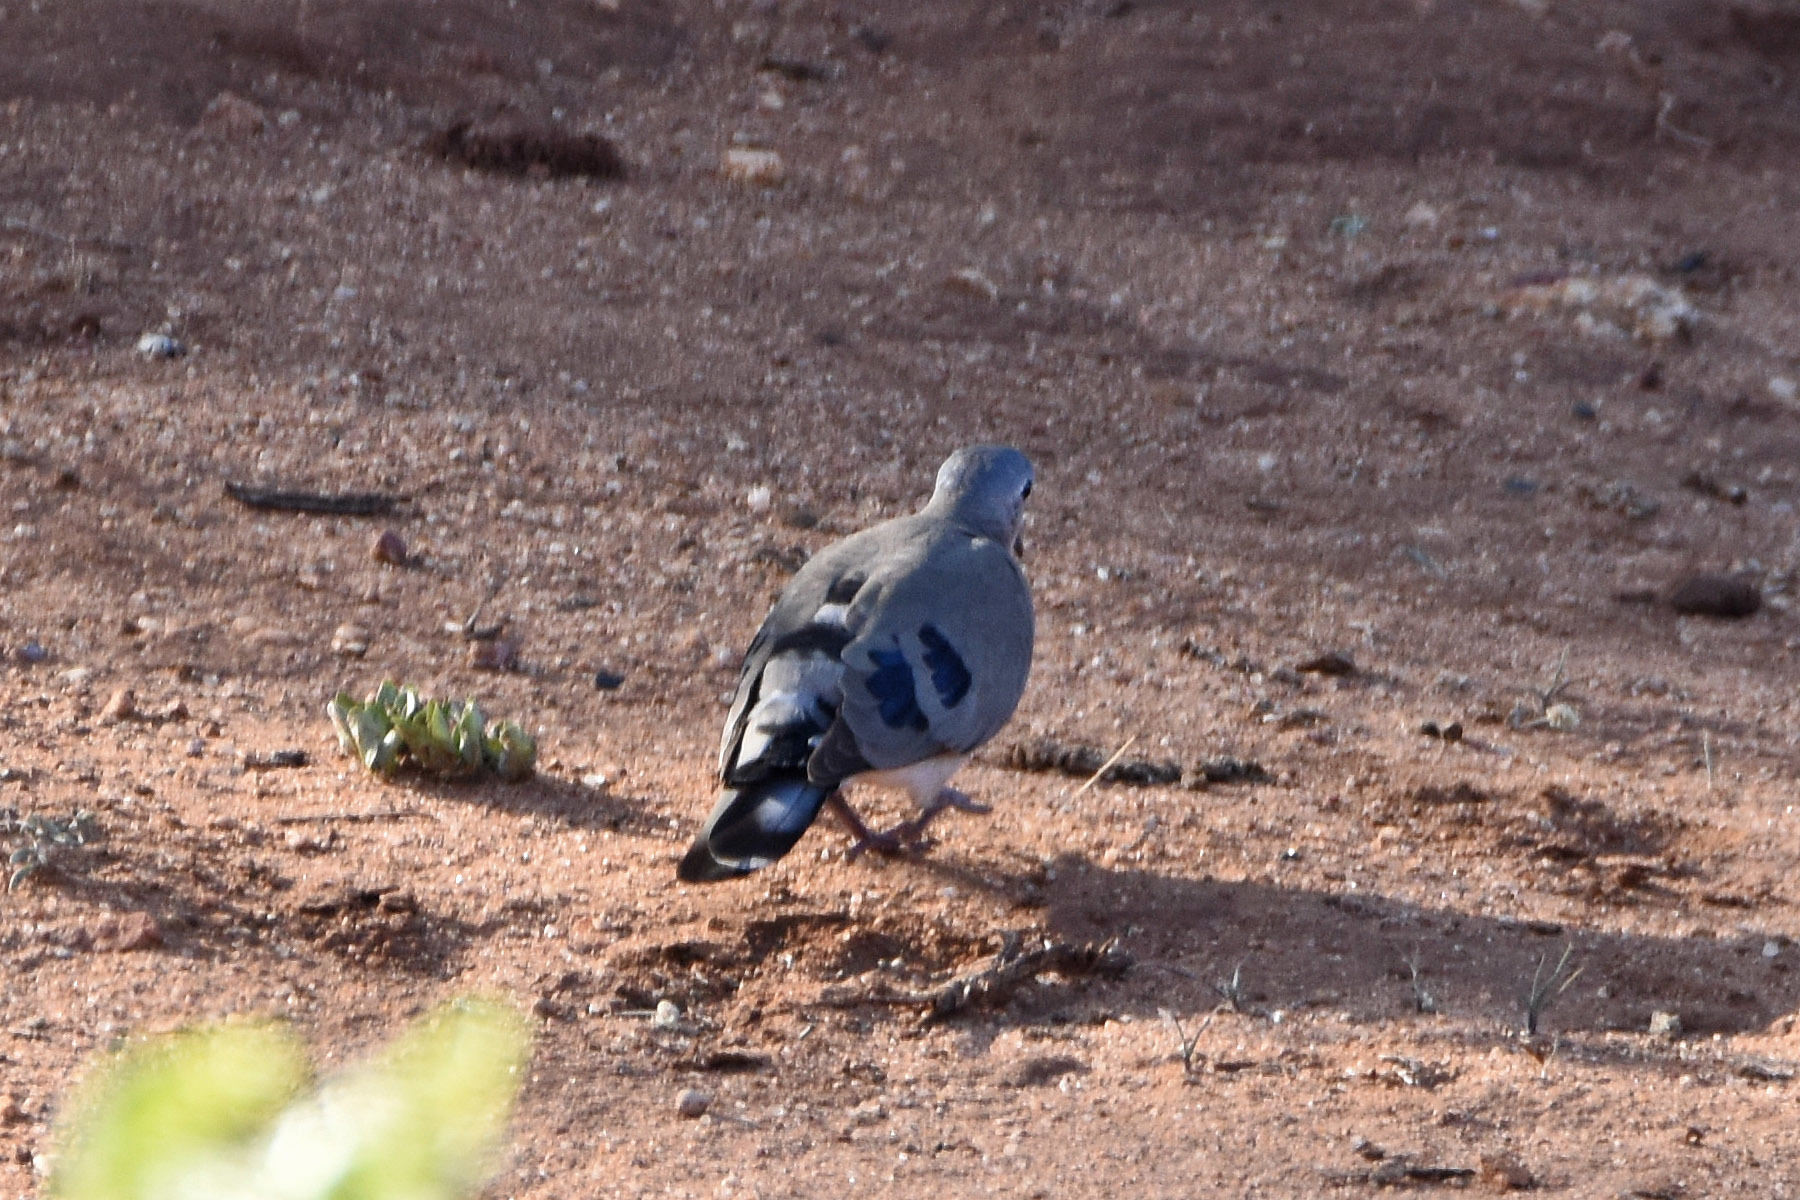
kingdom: Animalia
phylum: Chordata
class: Aves
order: Columbiformes
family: Columbidae
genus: Turtur
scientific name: Turtur chalcospilos
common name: Emerald-spotted wood dove
